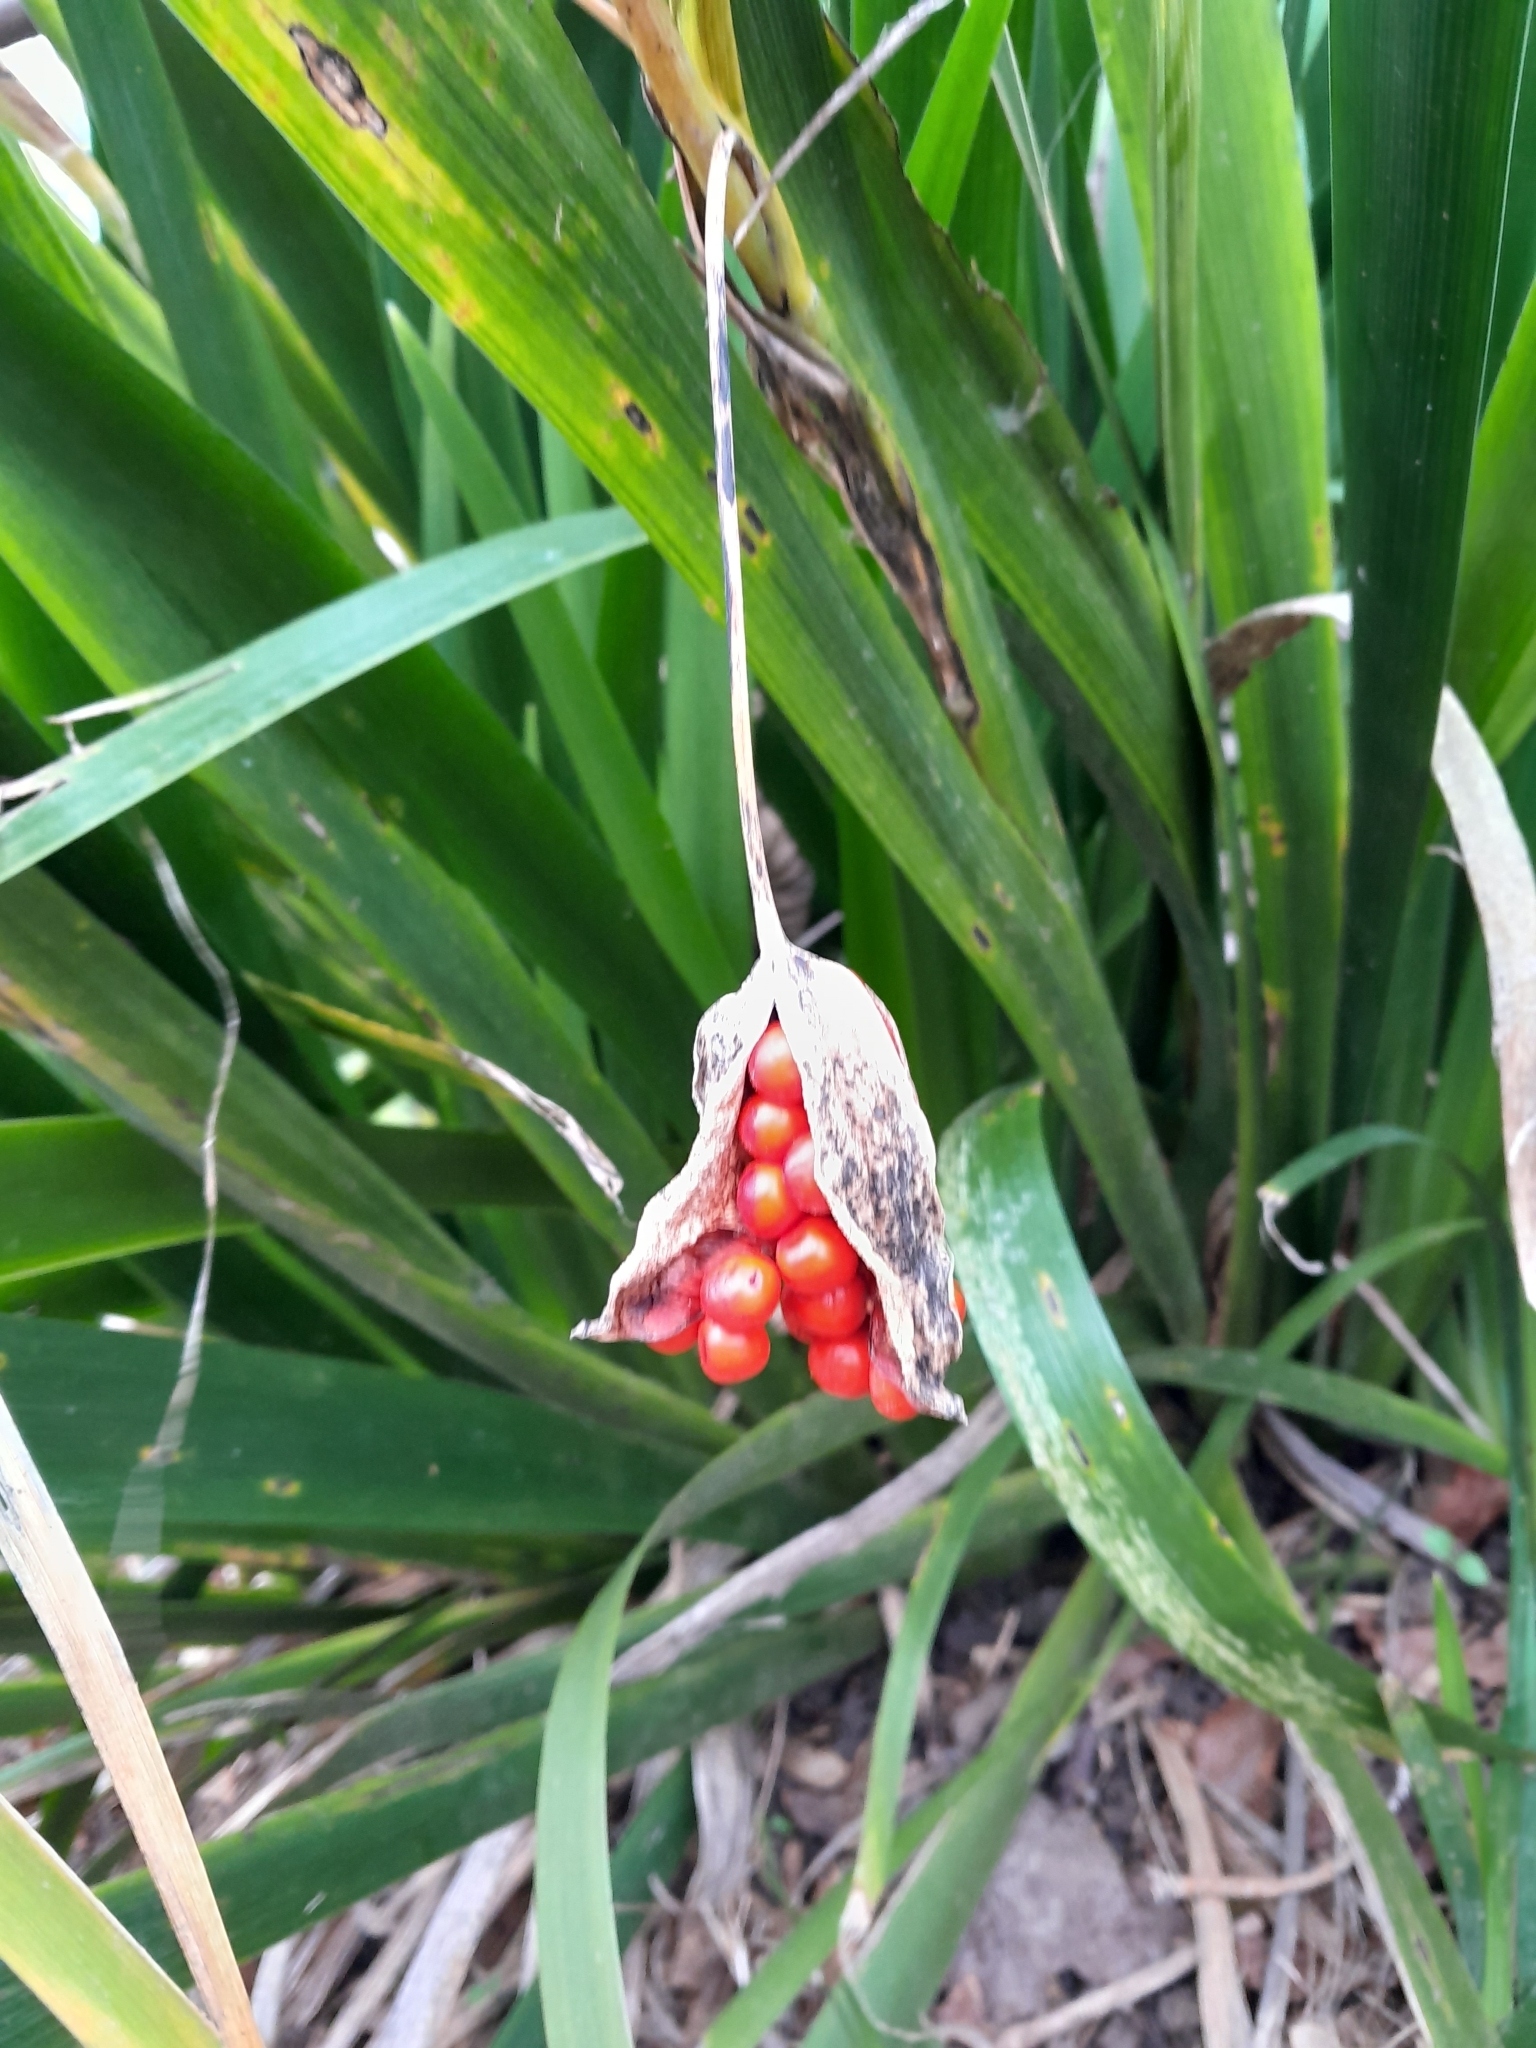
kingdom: Plantae
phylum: Tracheophyta
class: Liliopsida
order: Asparagales
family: Iridaceae
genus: Iris
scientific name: Iris foetidissima
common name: Stinking iris
